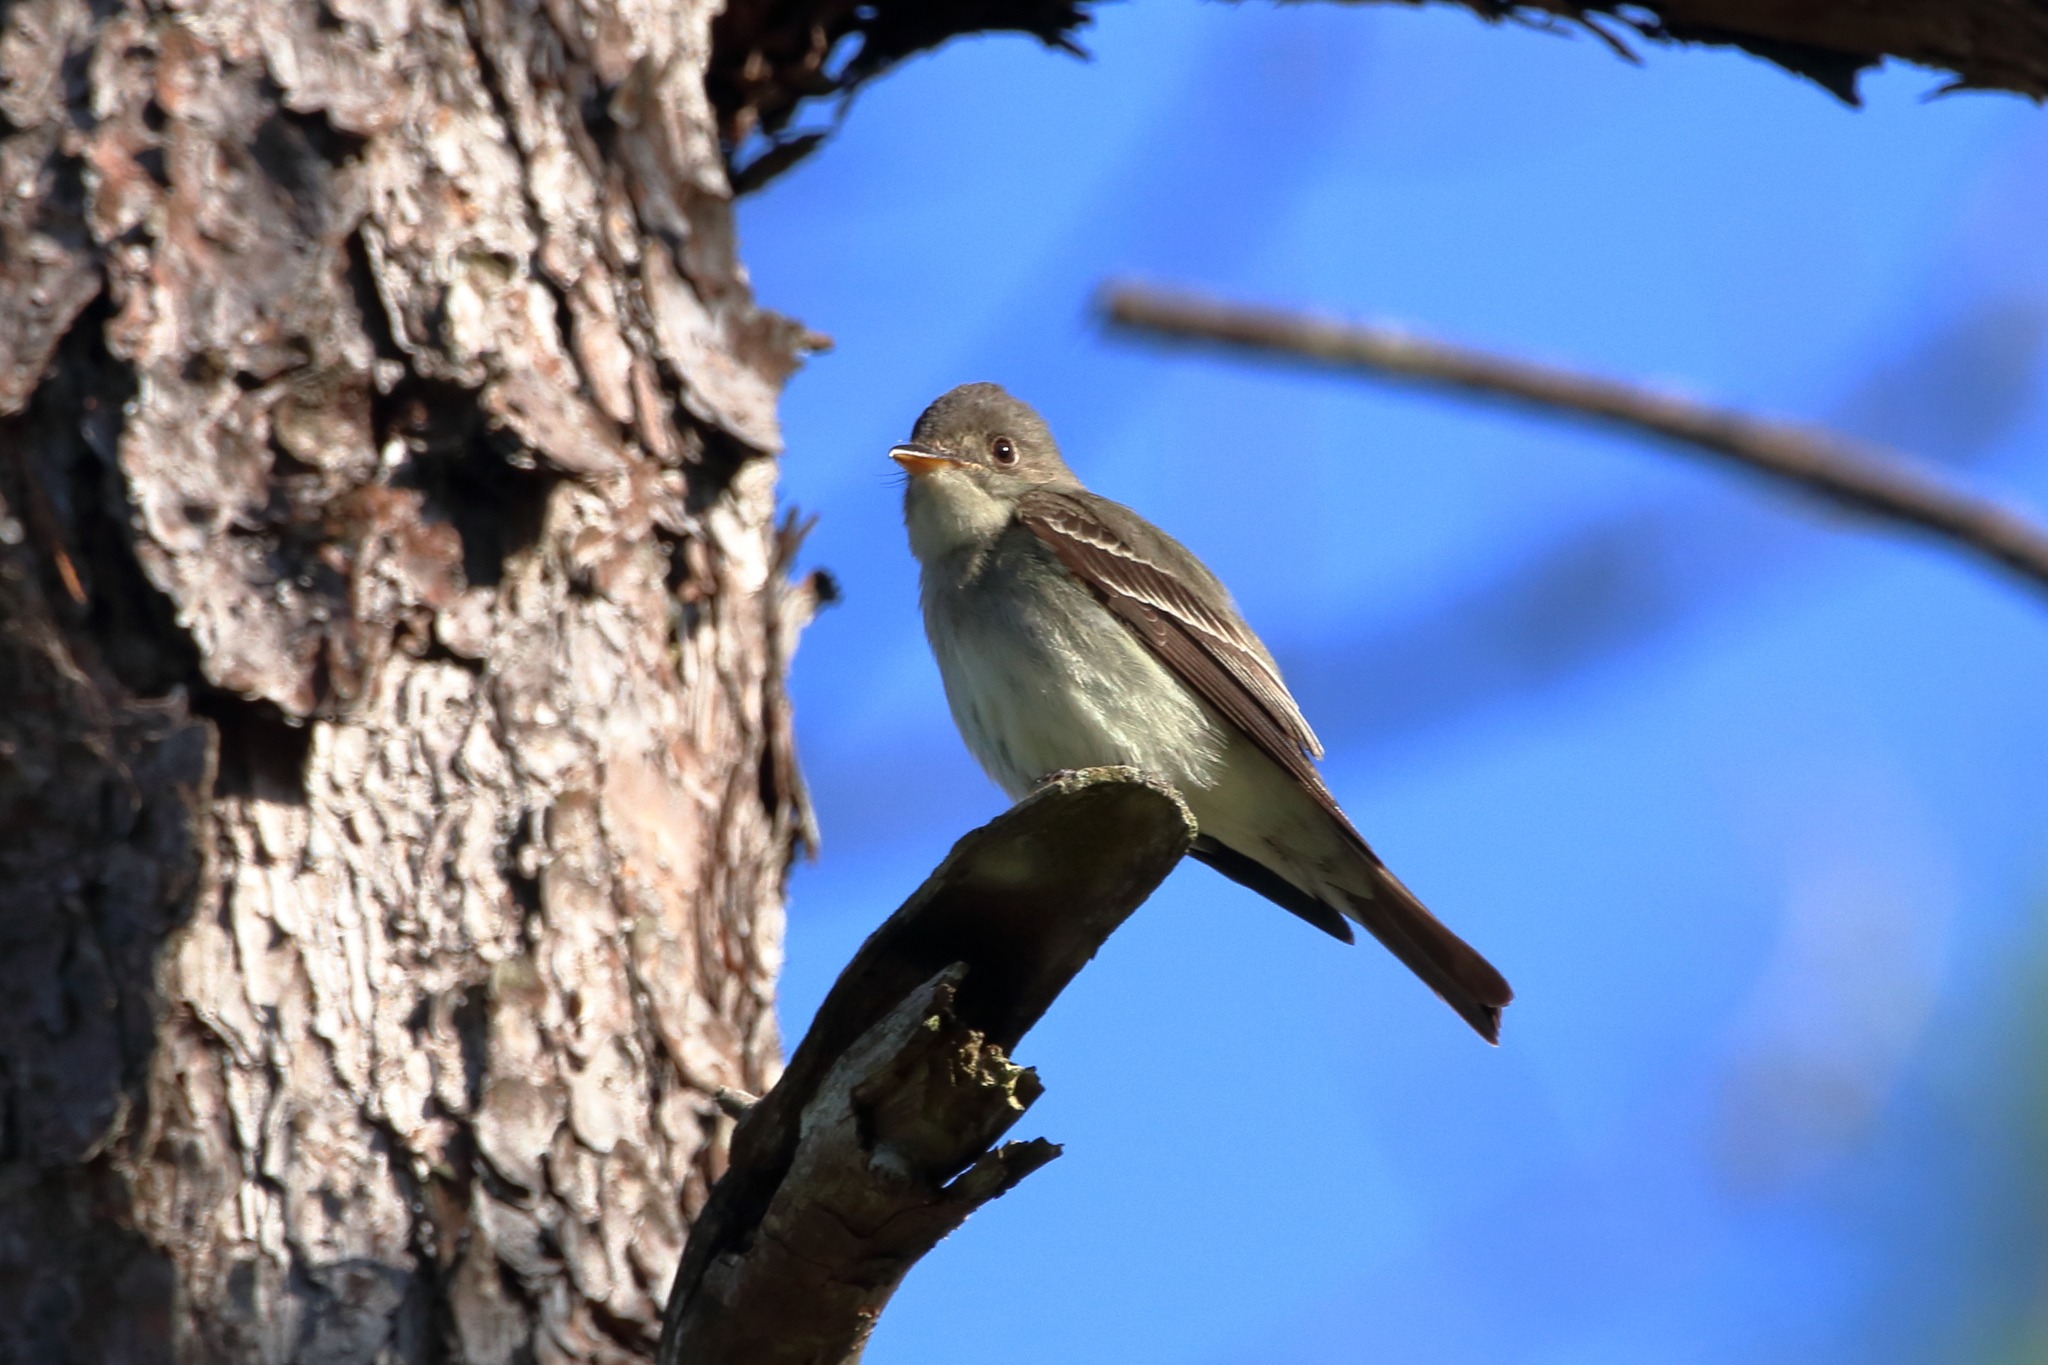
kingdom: Animalia
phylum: Chordata
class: Aves
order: Passeriformes
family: Tyrannidae
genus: Contopus
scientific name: Contopus virens
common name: Eastern wood-pewee
